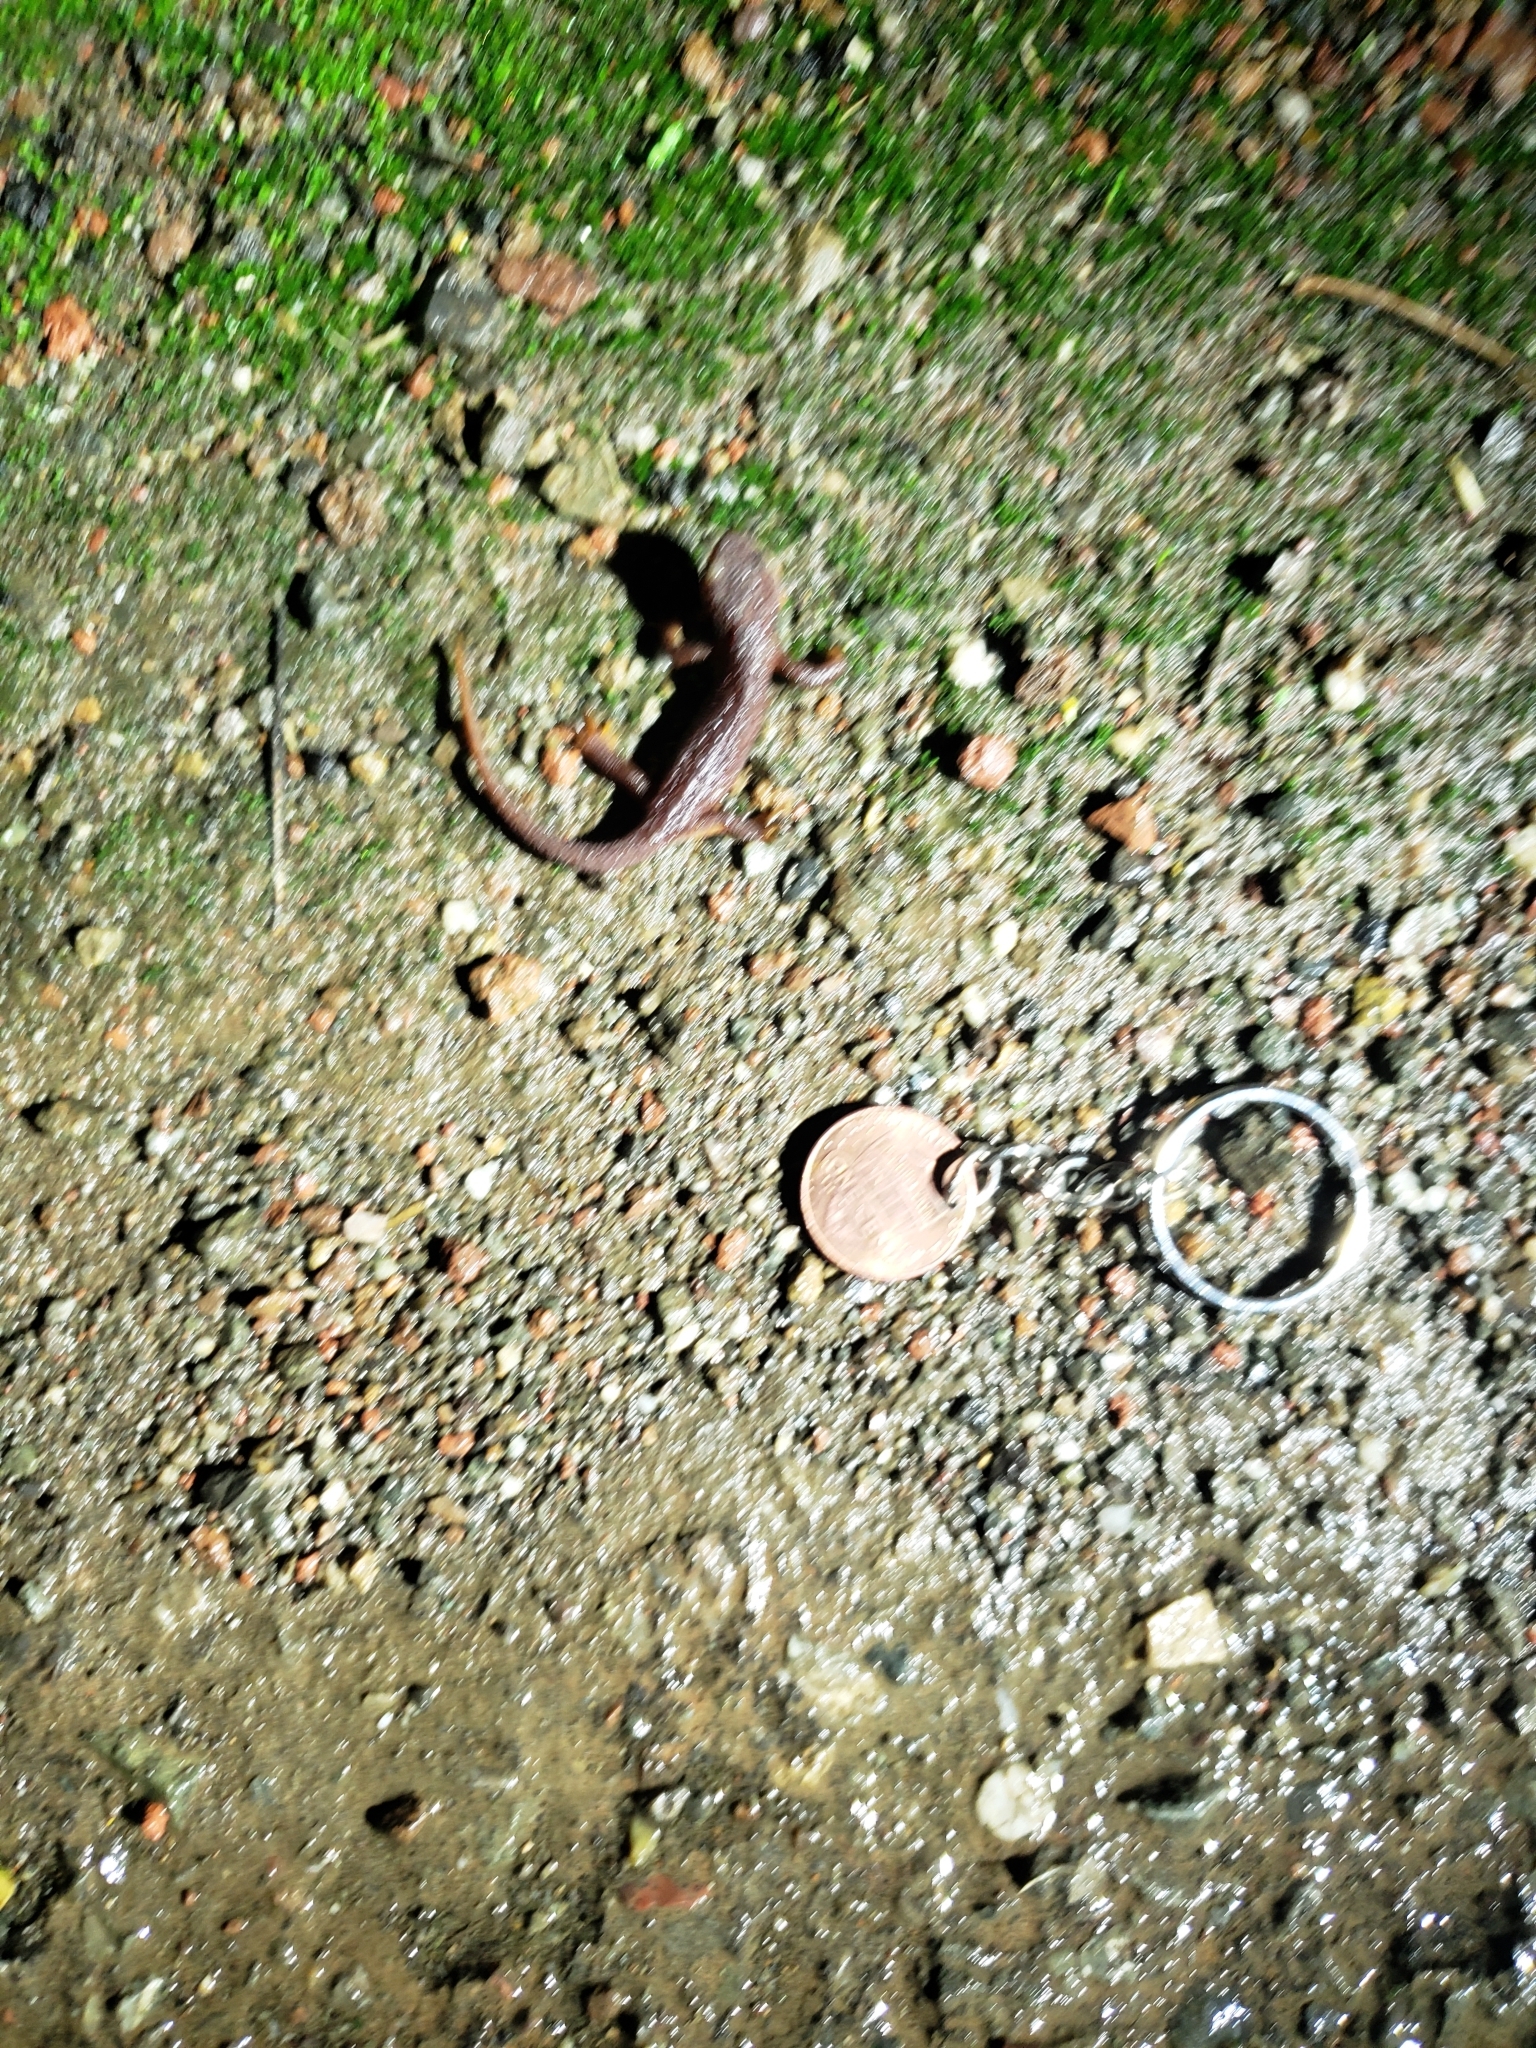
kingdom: Animalia
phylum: Chordata
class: Amphibia
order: Caudata
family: Salamandridae
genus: Taricha
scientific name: Taricha torosa
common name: California newt
